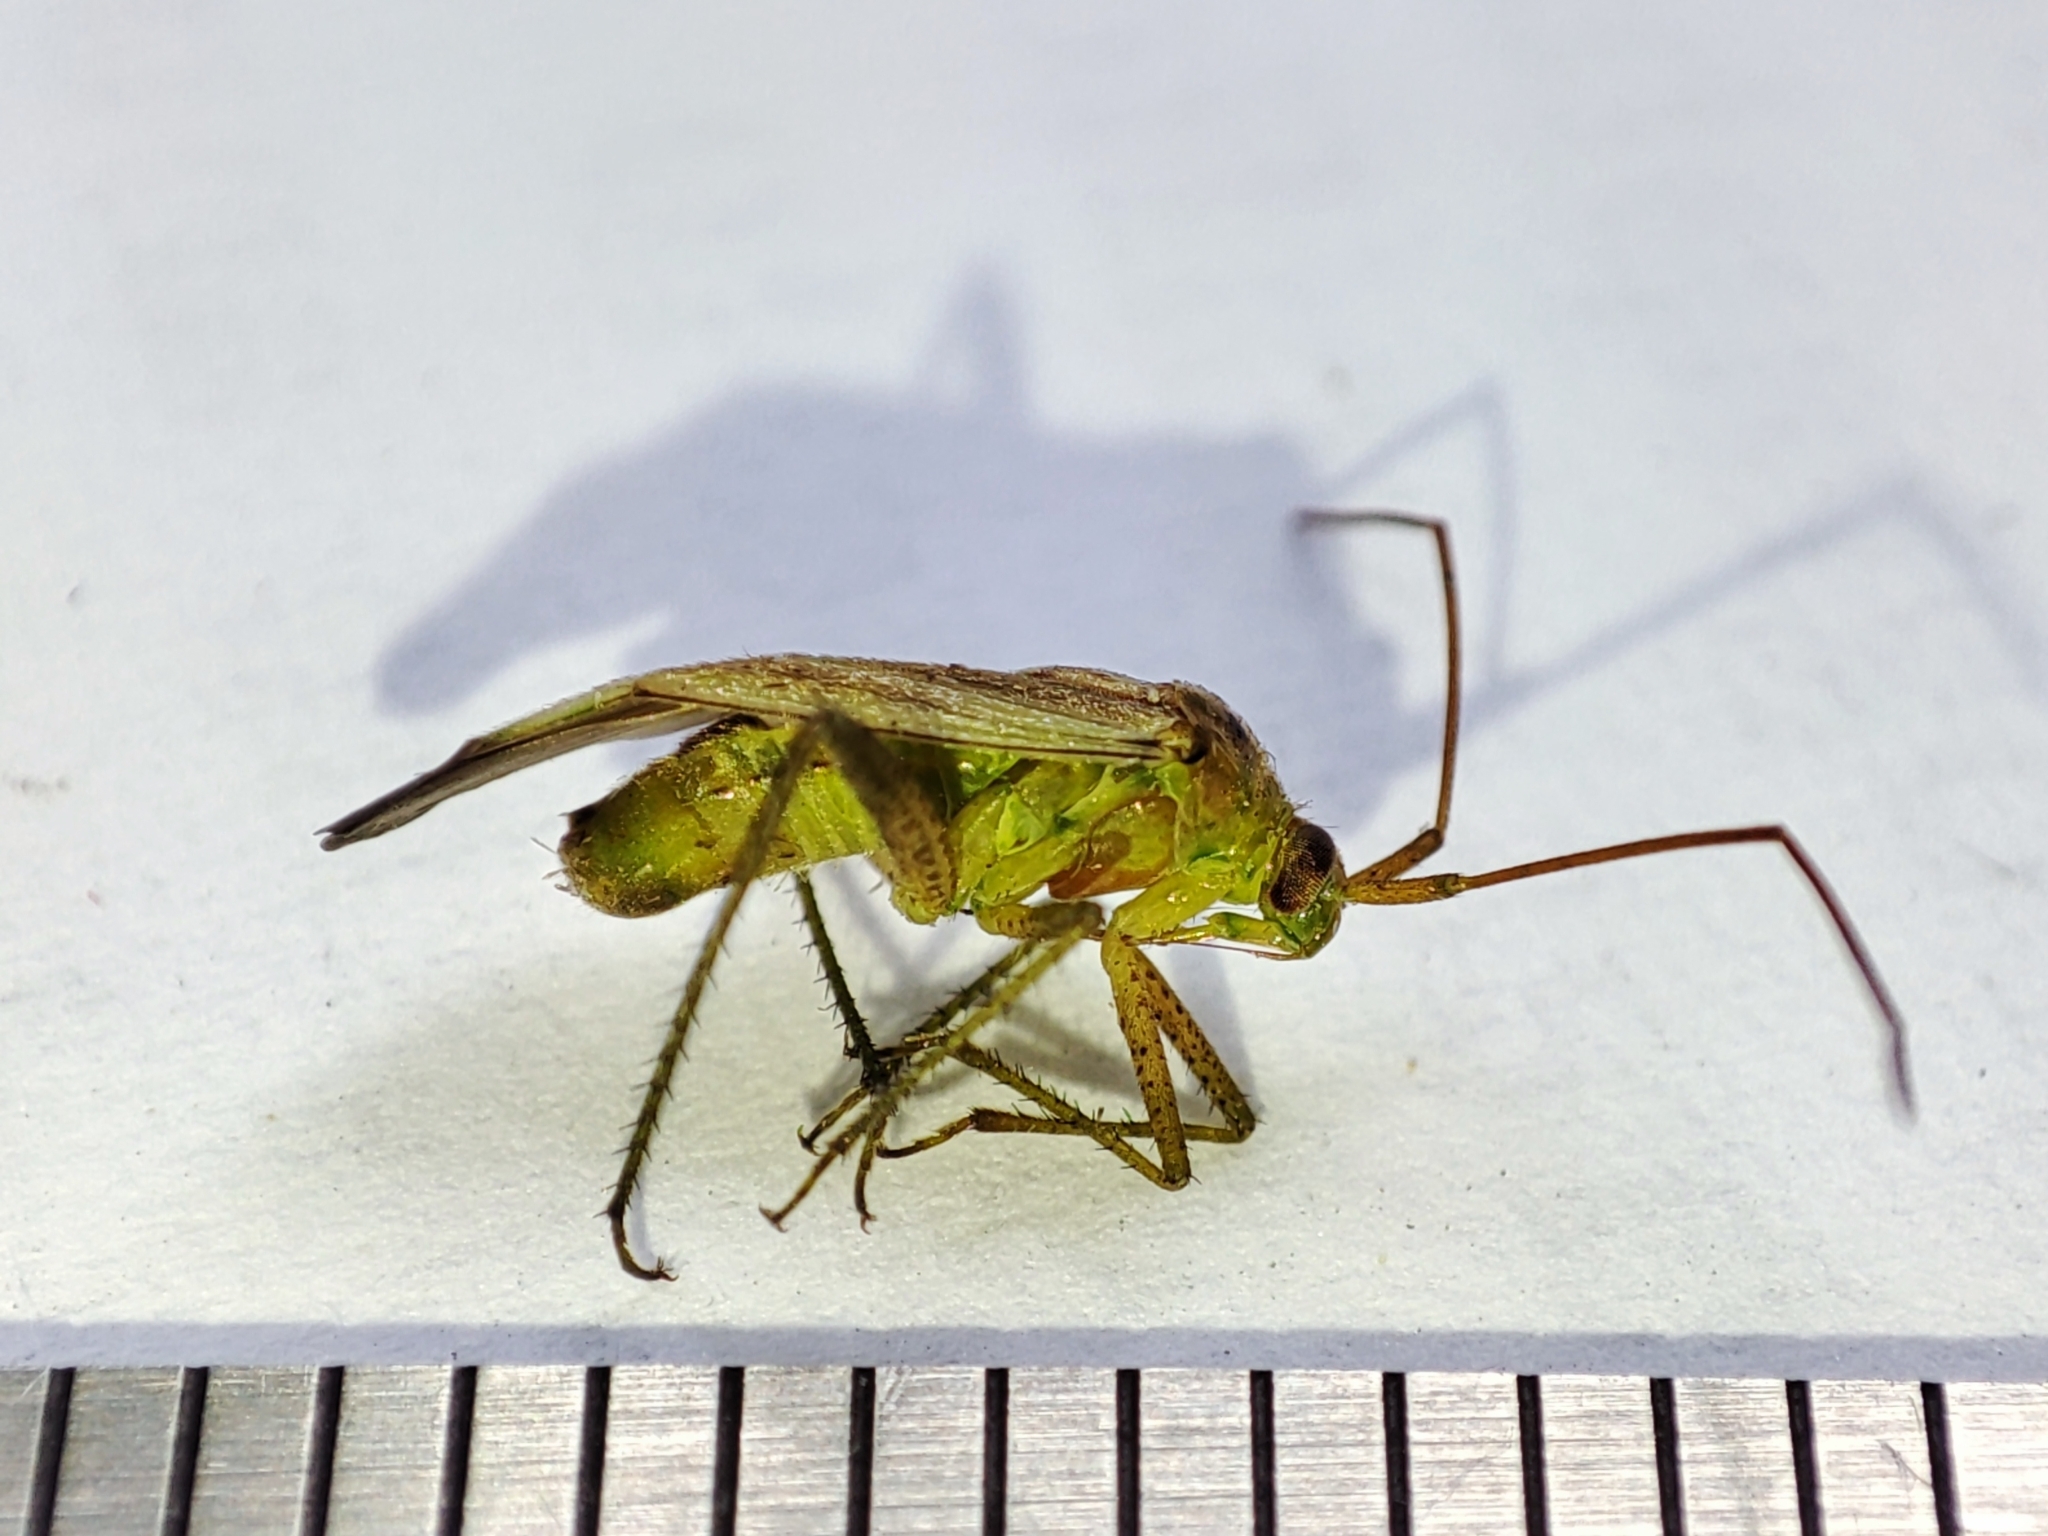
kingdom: Animalia
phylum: Arthropoda
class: Insecta
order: Hemiptera
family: Miridae
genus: Adelphocoris
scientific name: Adelphocoris lineolatus
